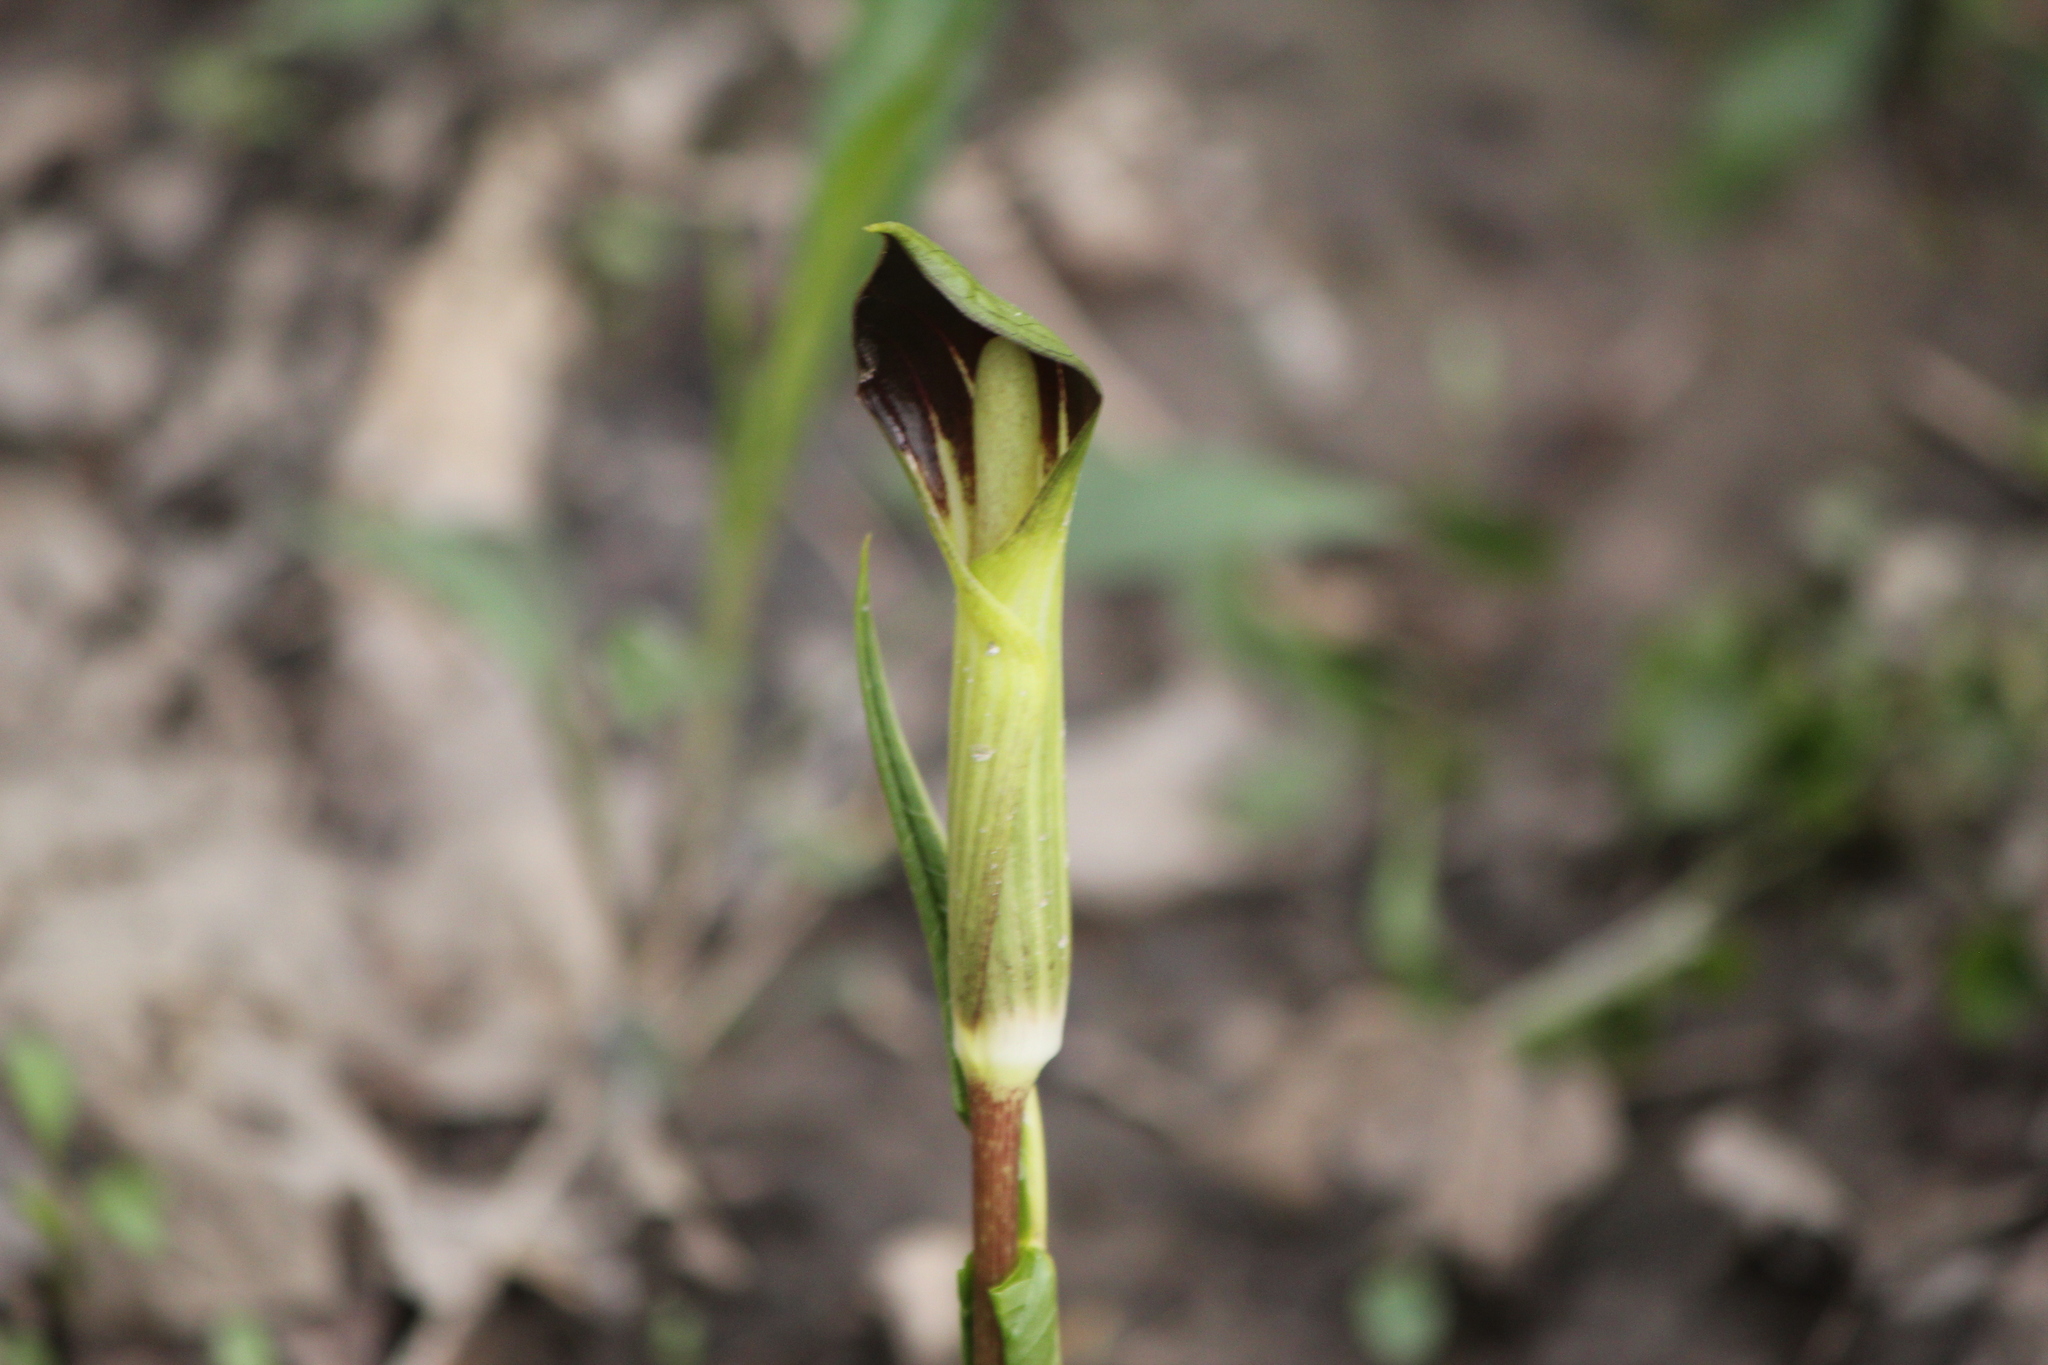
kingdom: Plantae
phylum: Tracheophyta
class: Liliopsida
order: Alismatales
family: Araceae
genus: Arisaema
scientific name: Arisaema triphyllum
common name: Jack-in-the-pulpit
